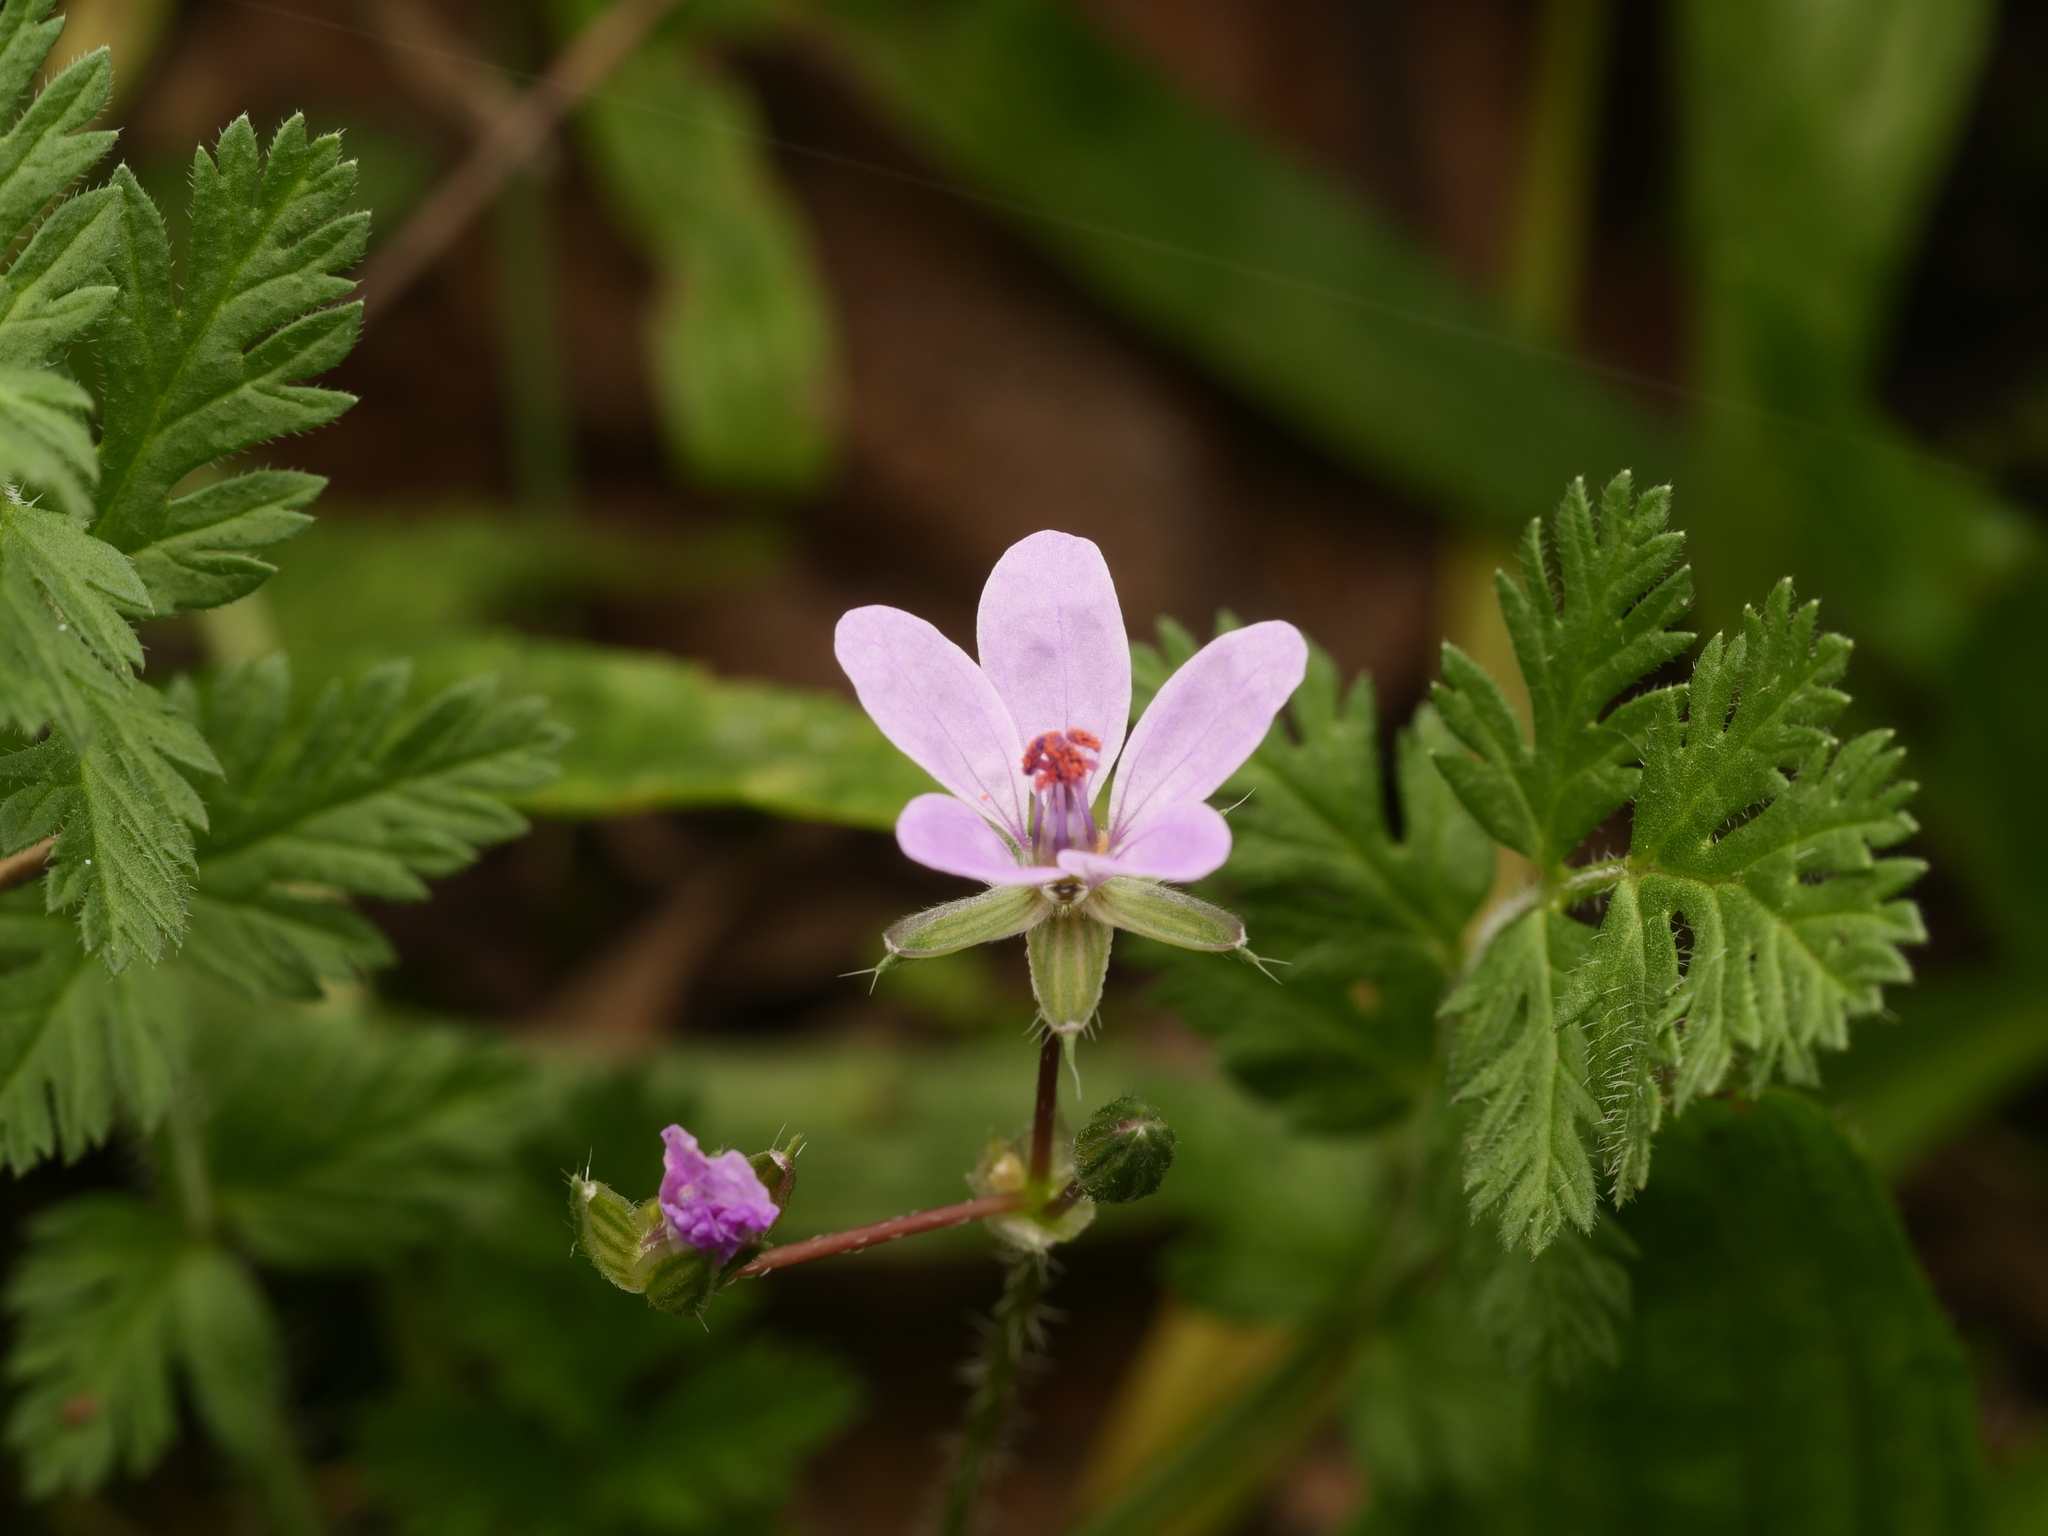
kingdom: Plantae
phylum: Tracheophyta
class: Magnoliopsida
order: Geraniales
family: Geraniaceae
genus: Erodium
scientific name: Erodium cicutarium
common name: Common stork's-bill
